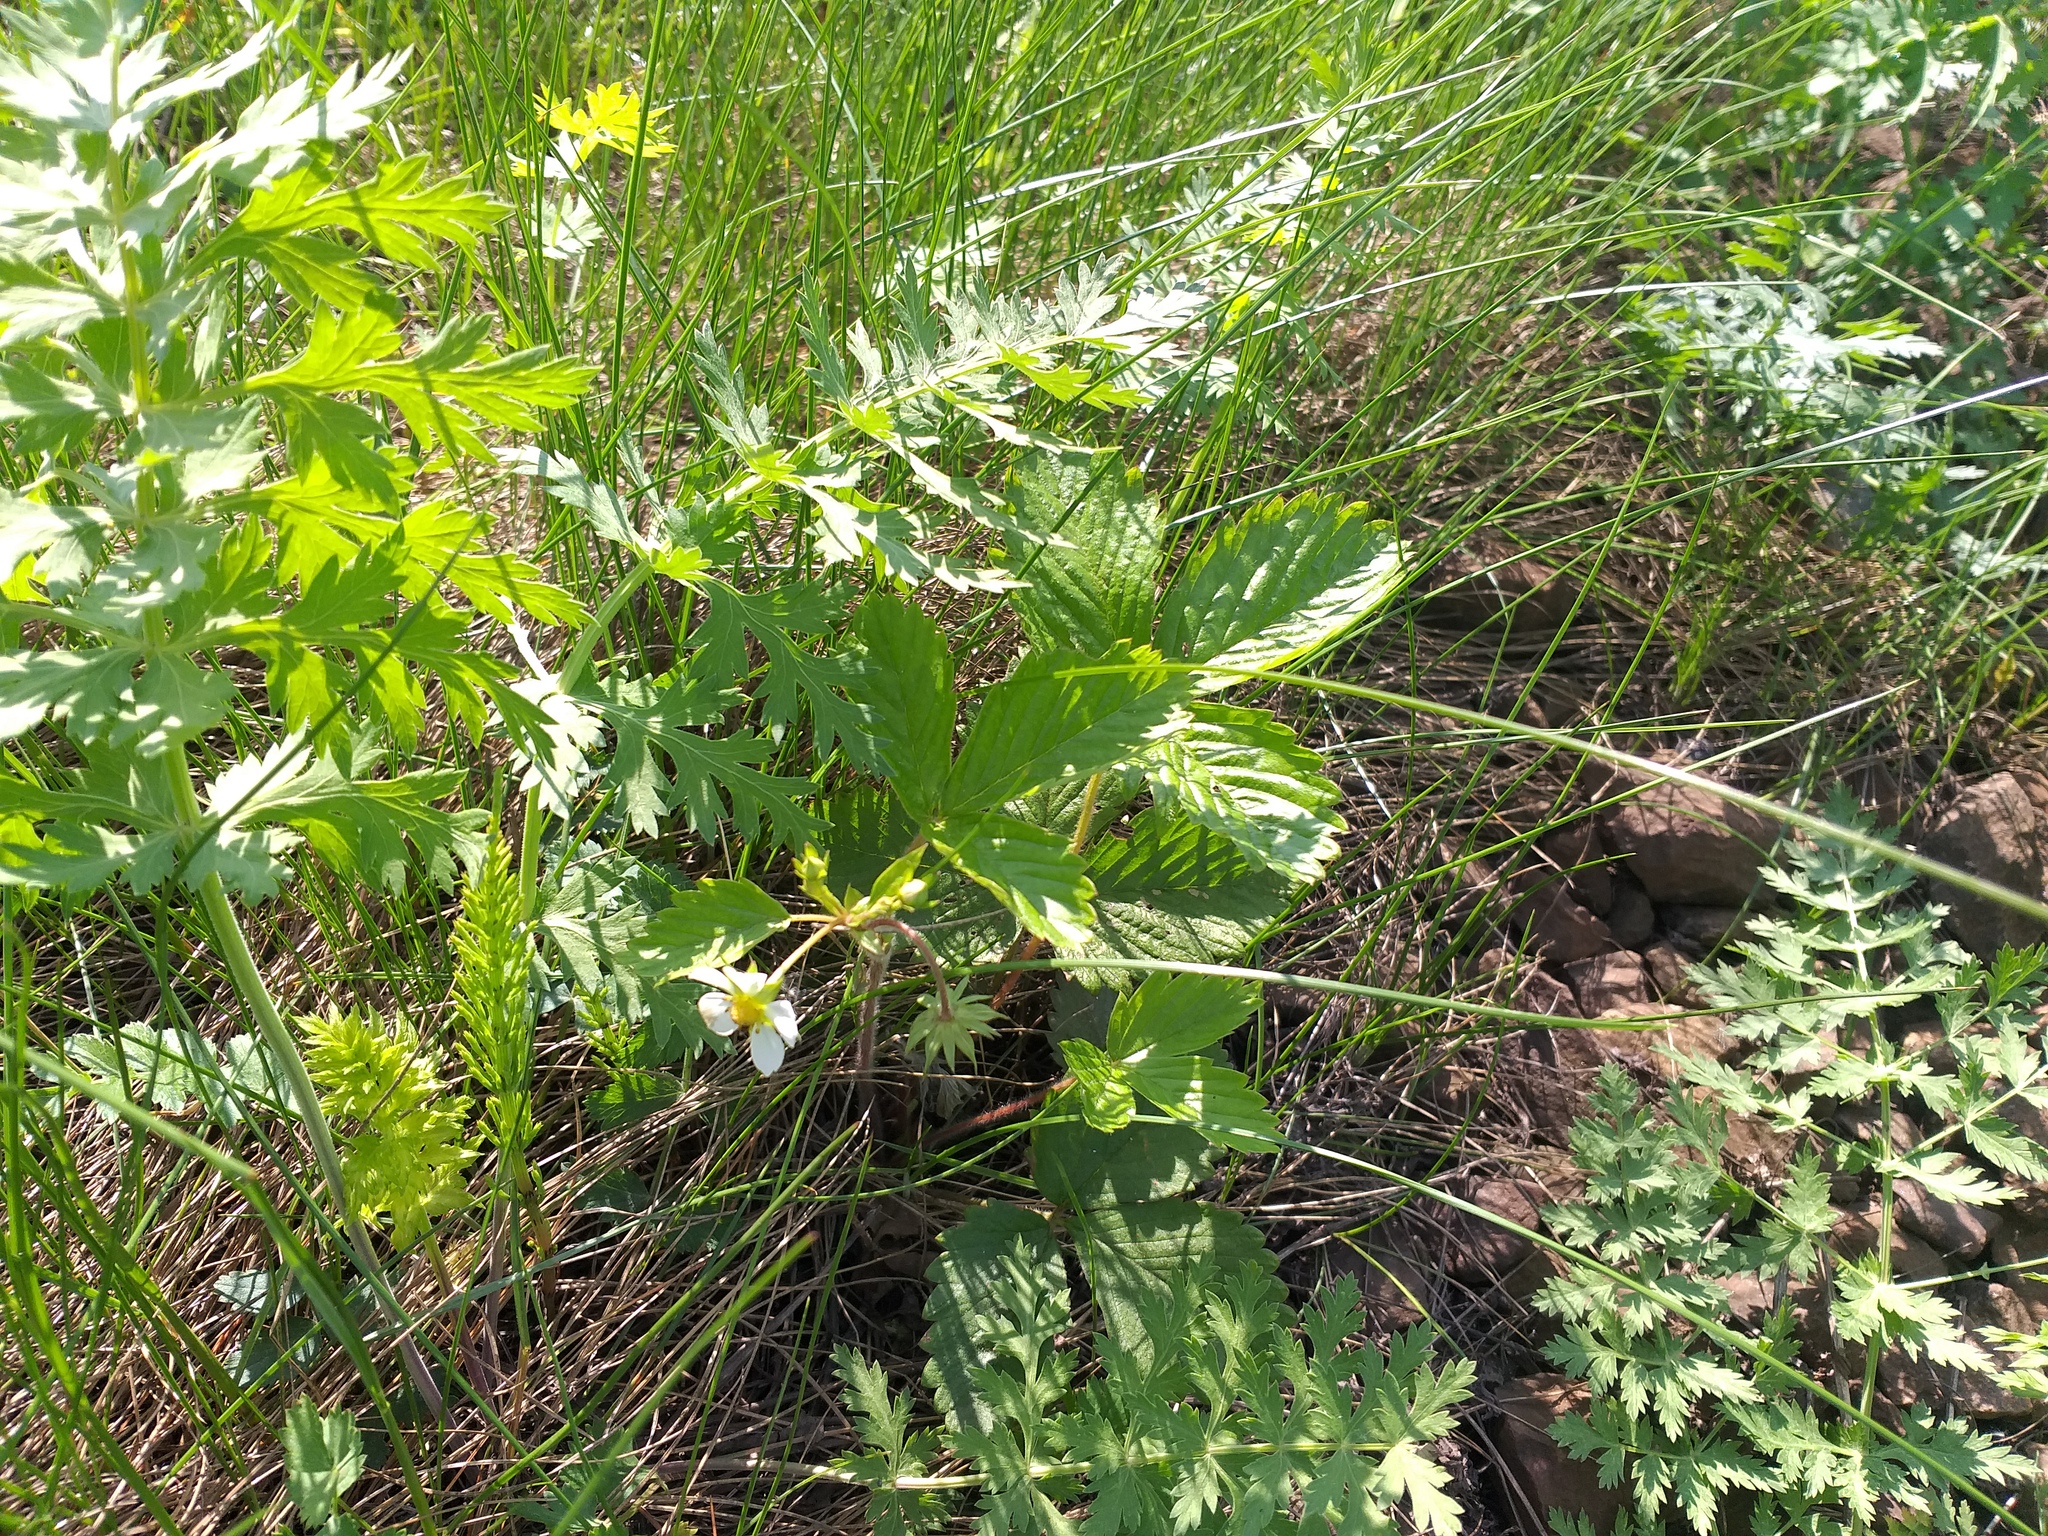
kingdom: Plantae
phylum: Tracheophyta
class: Magnoliopsida
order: Rosales
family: Rosaceae
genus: Fragaria
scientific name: Fragaria vesca
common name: Wild strawberry
